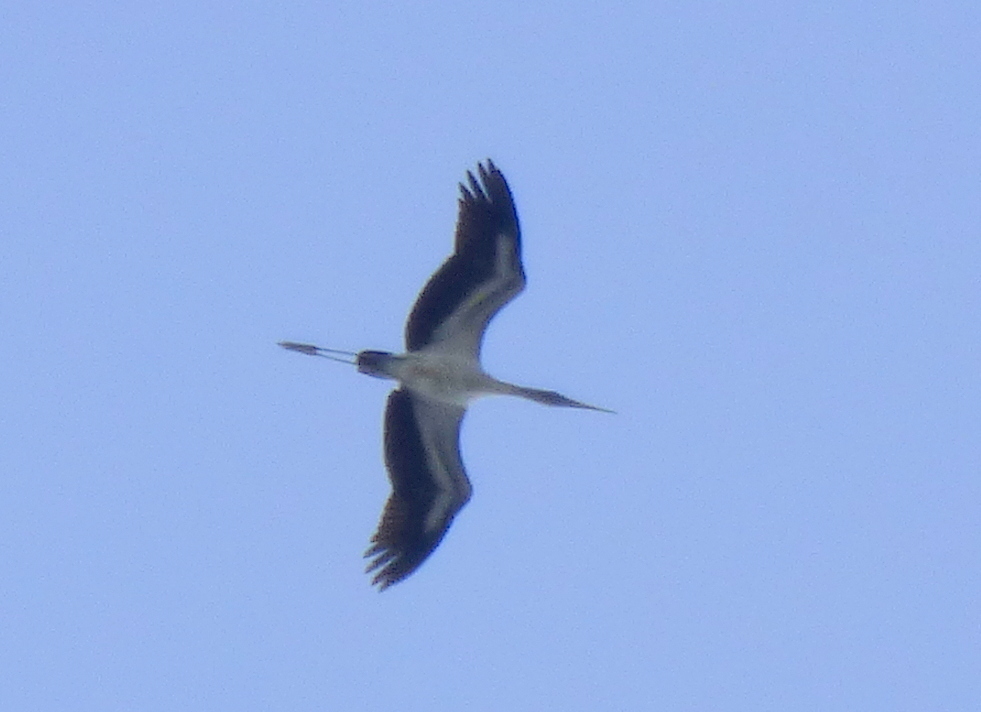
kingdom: Animalia
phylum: Chordata
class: Aves
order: Ciconiiformes
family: Ciconiidae
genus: Mycteria
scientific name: Mycteria americana
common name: Wood stork
